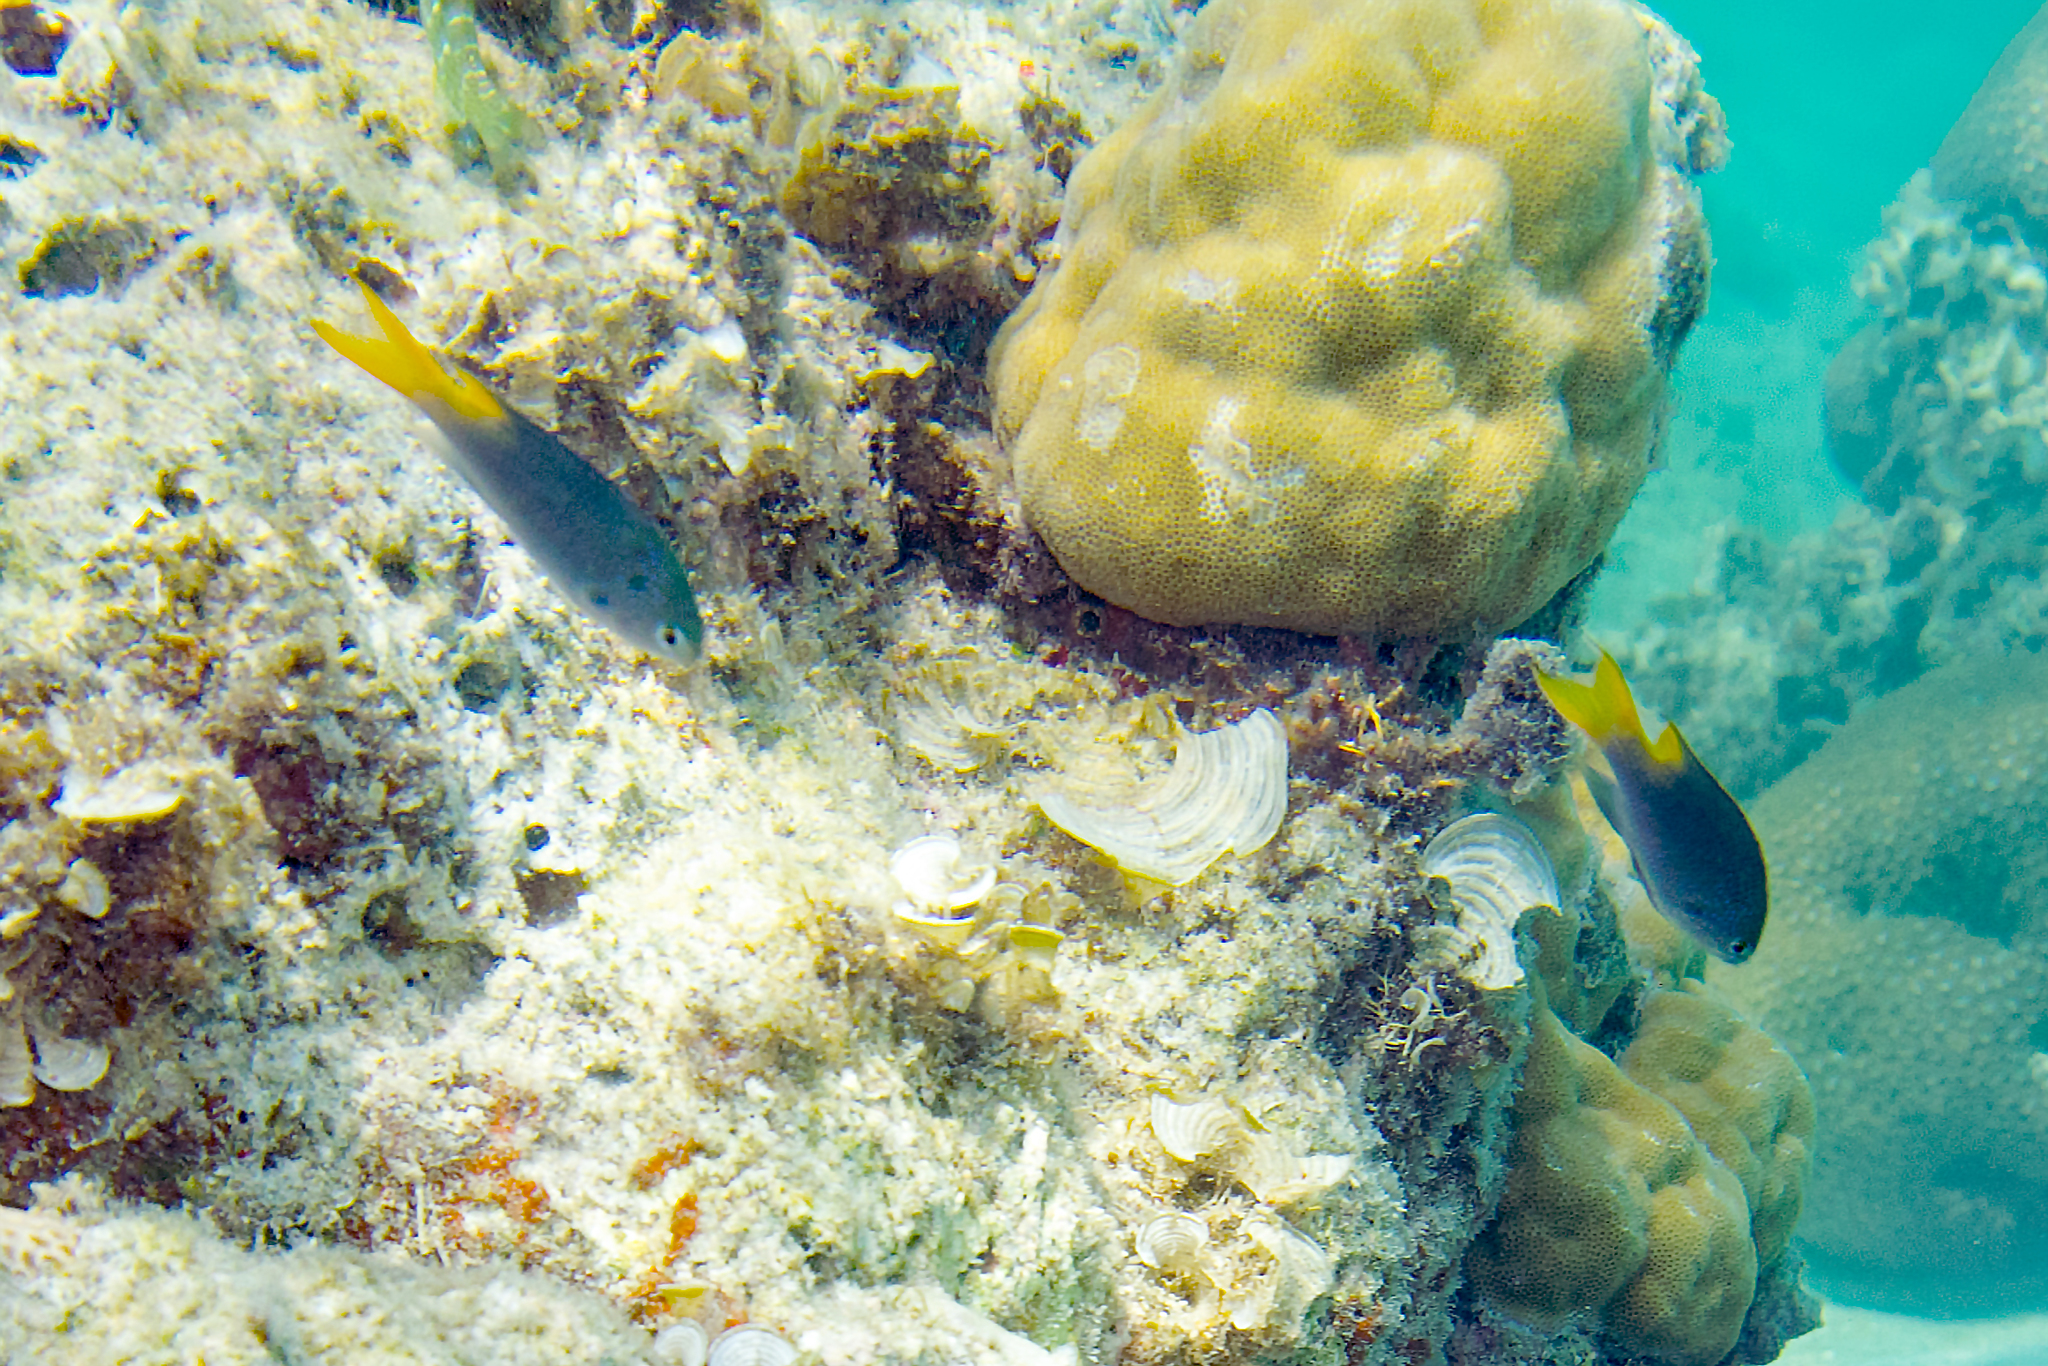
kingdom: Animalia
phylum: Chordata
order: Perciformes
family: Pomacentridae
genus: Neopomacentrus
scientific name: Neopomacentrus azysron
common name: Yellow-tail damsel
